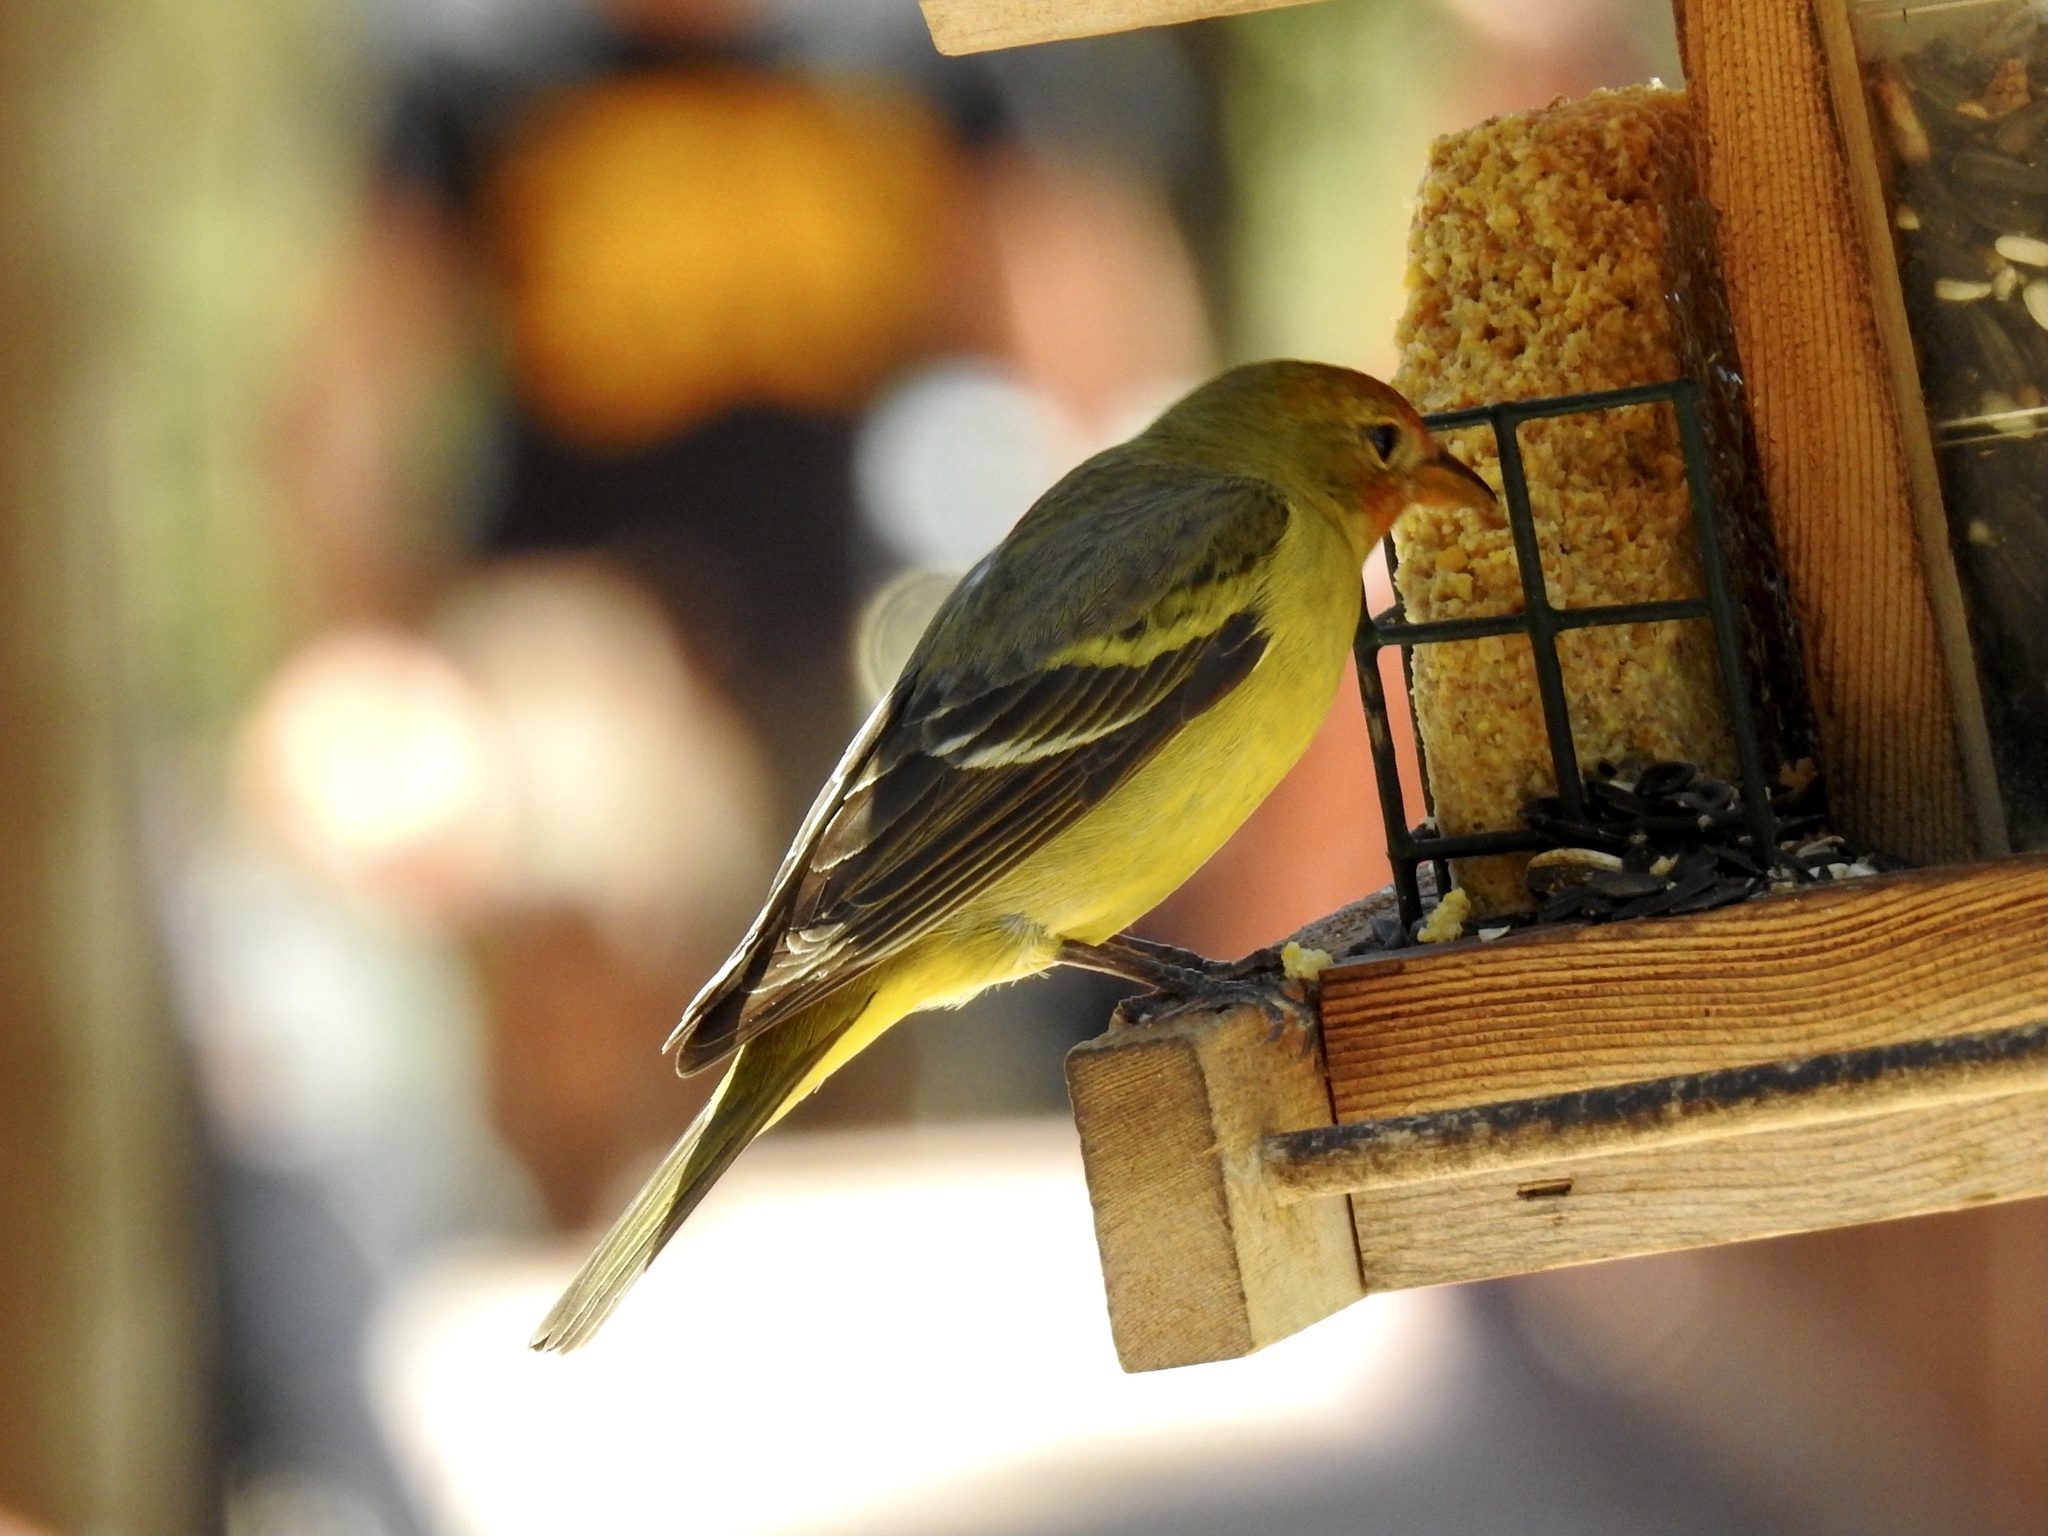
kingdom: Animalia
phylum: Chordata
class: Aves
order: Passeriformes
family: Cardinalidae
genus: Piranga
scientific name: Piranga ludoviciana
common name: Western tanager
